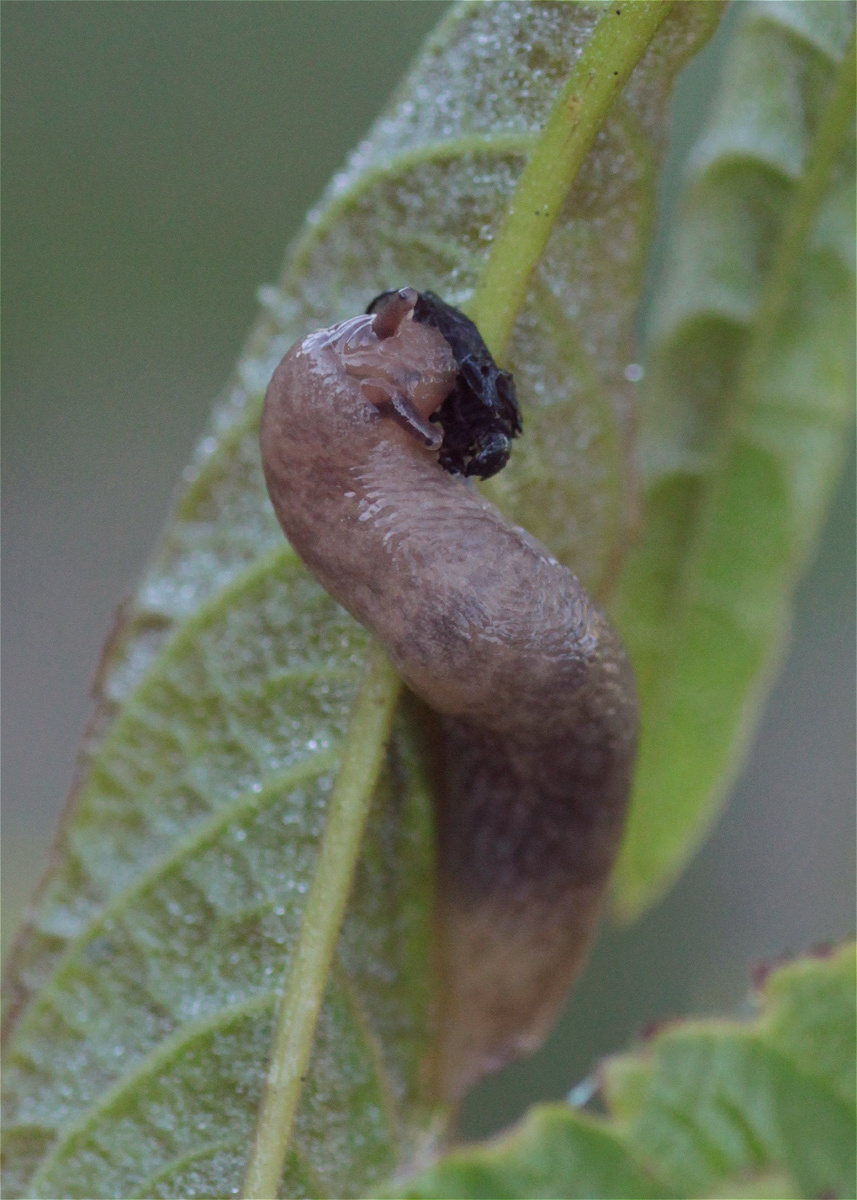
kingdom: Animalia
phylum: Mollusca
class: Gastropoda
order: Stylommatophora
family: Agriolimacidae
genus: Deroceras
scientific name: Deroceras reticulatum
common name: Gray field slug
